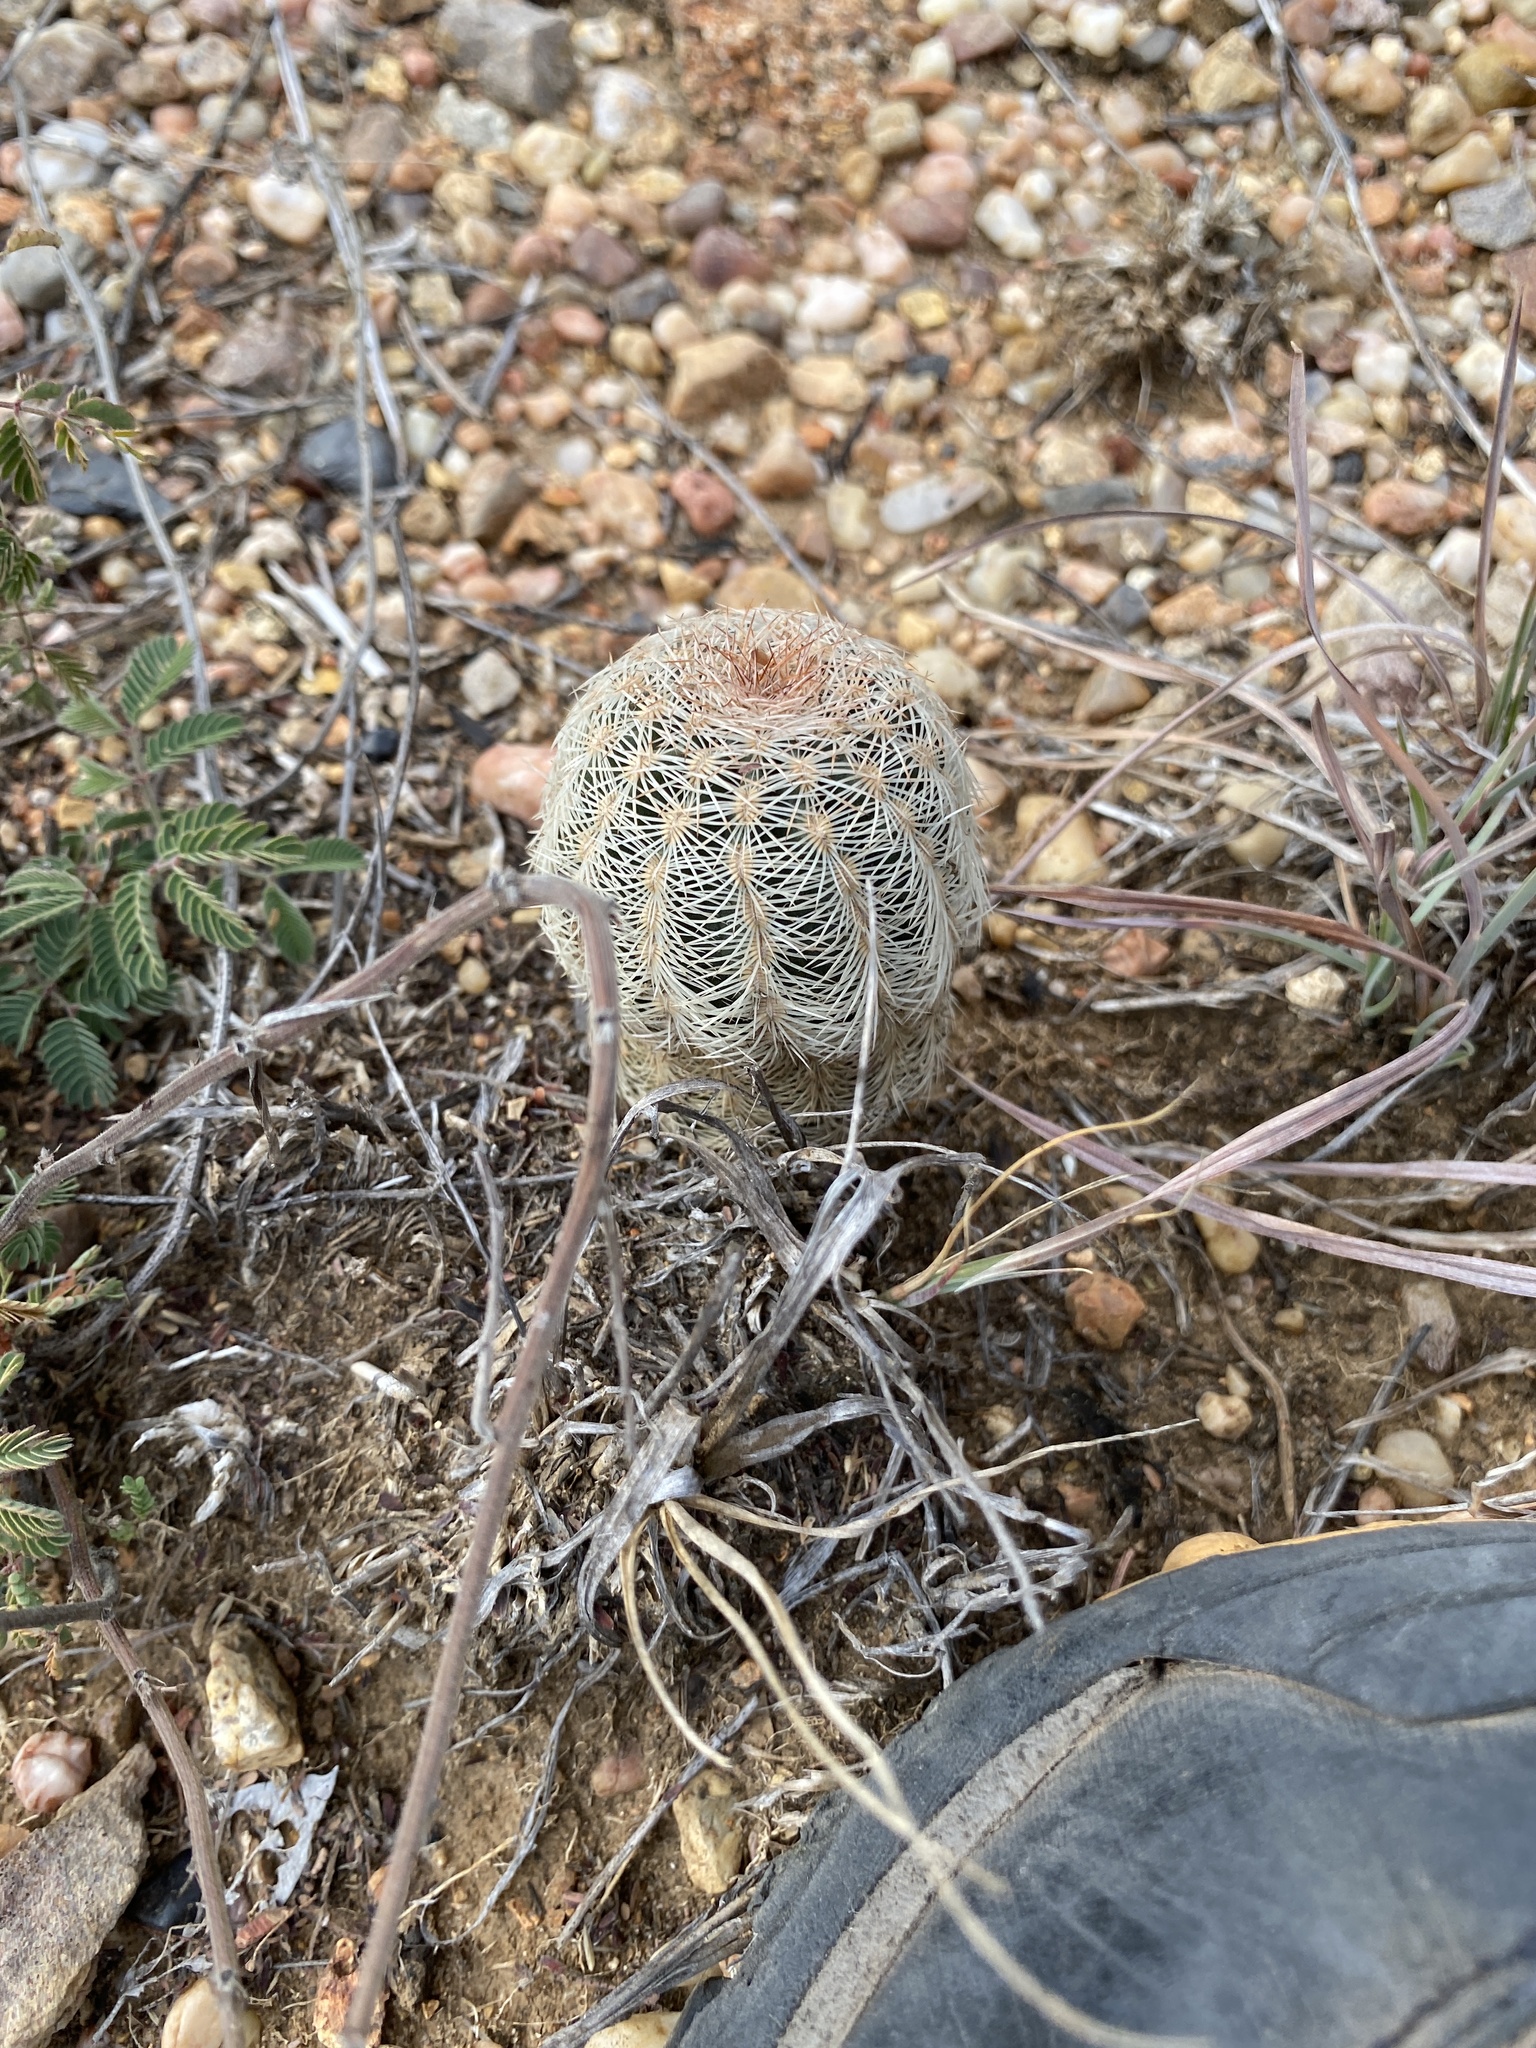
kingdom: Plantae
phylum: Tracheophyta
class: Magnoliopsida
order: Caryophyllales
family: Cactaceae
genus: Echinocereus
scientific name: Echinocereus reichenbachii
